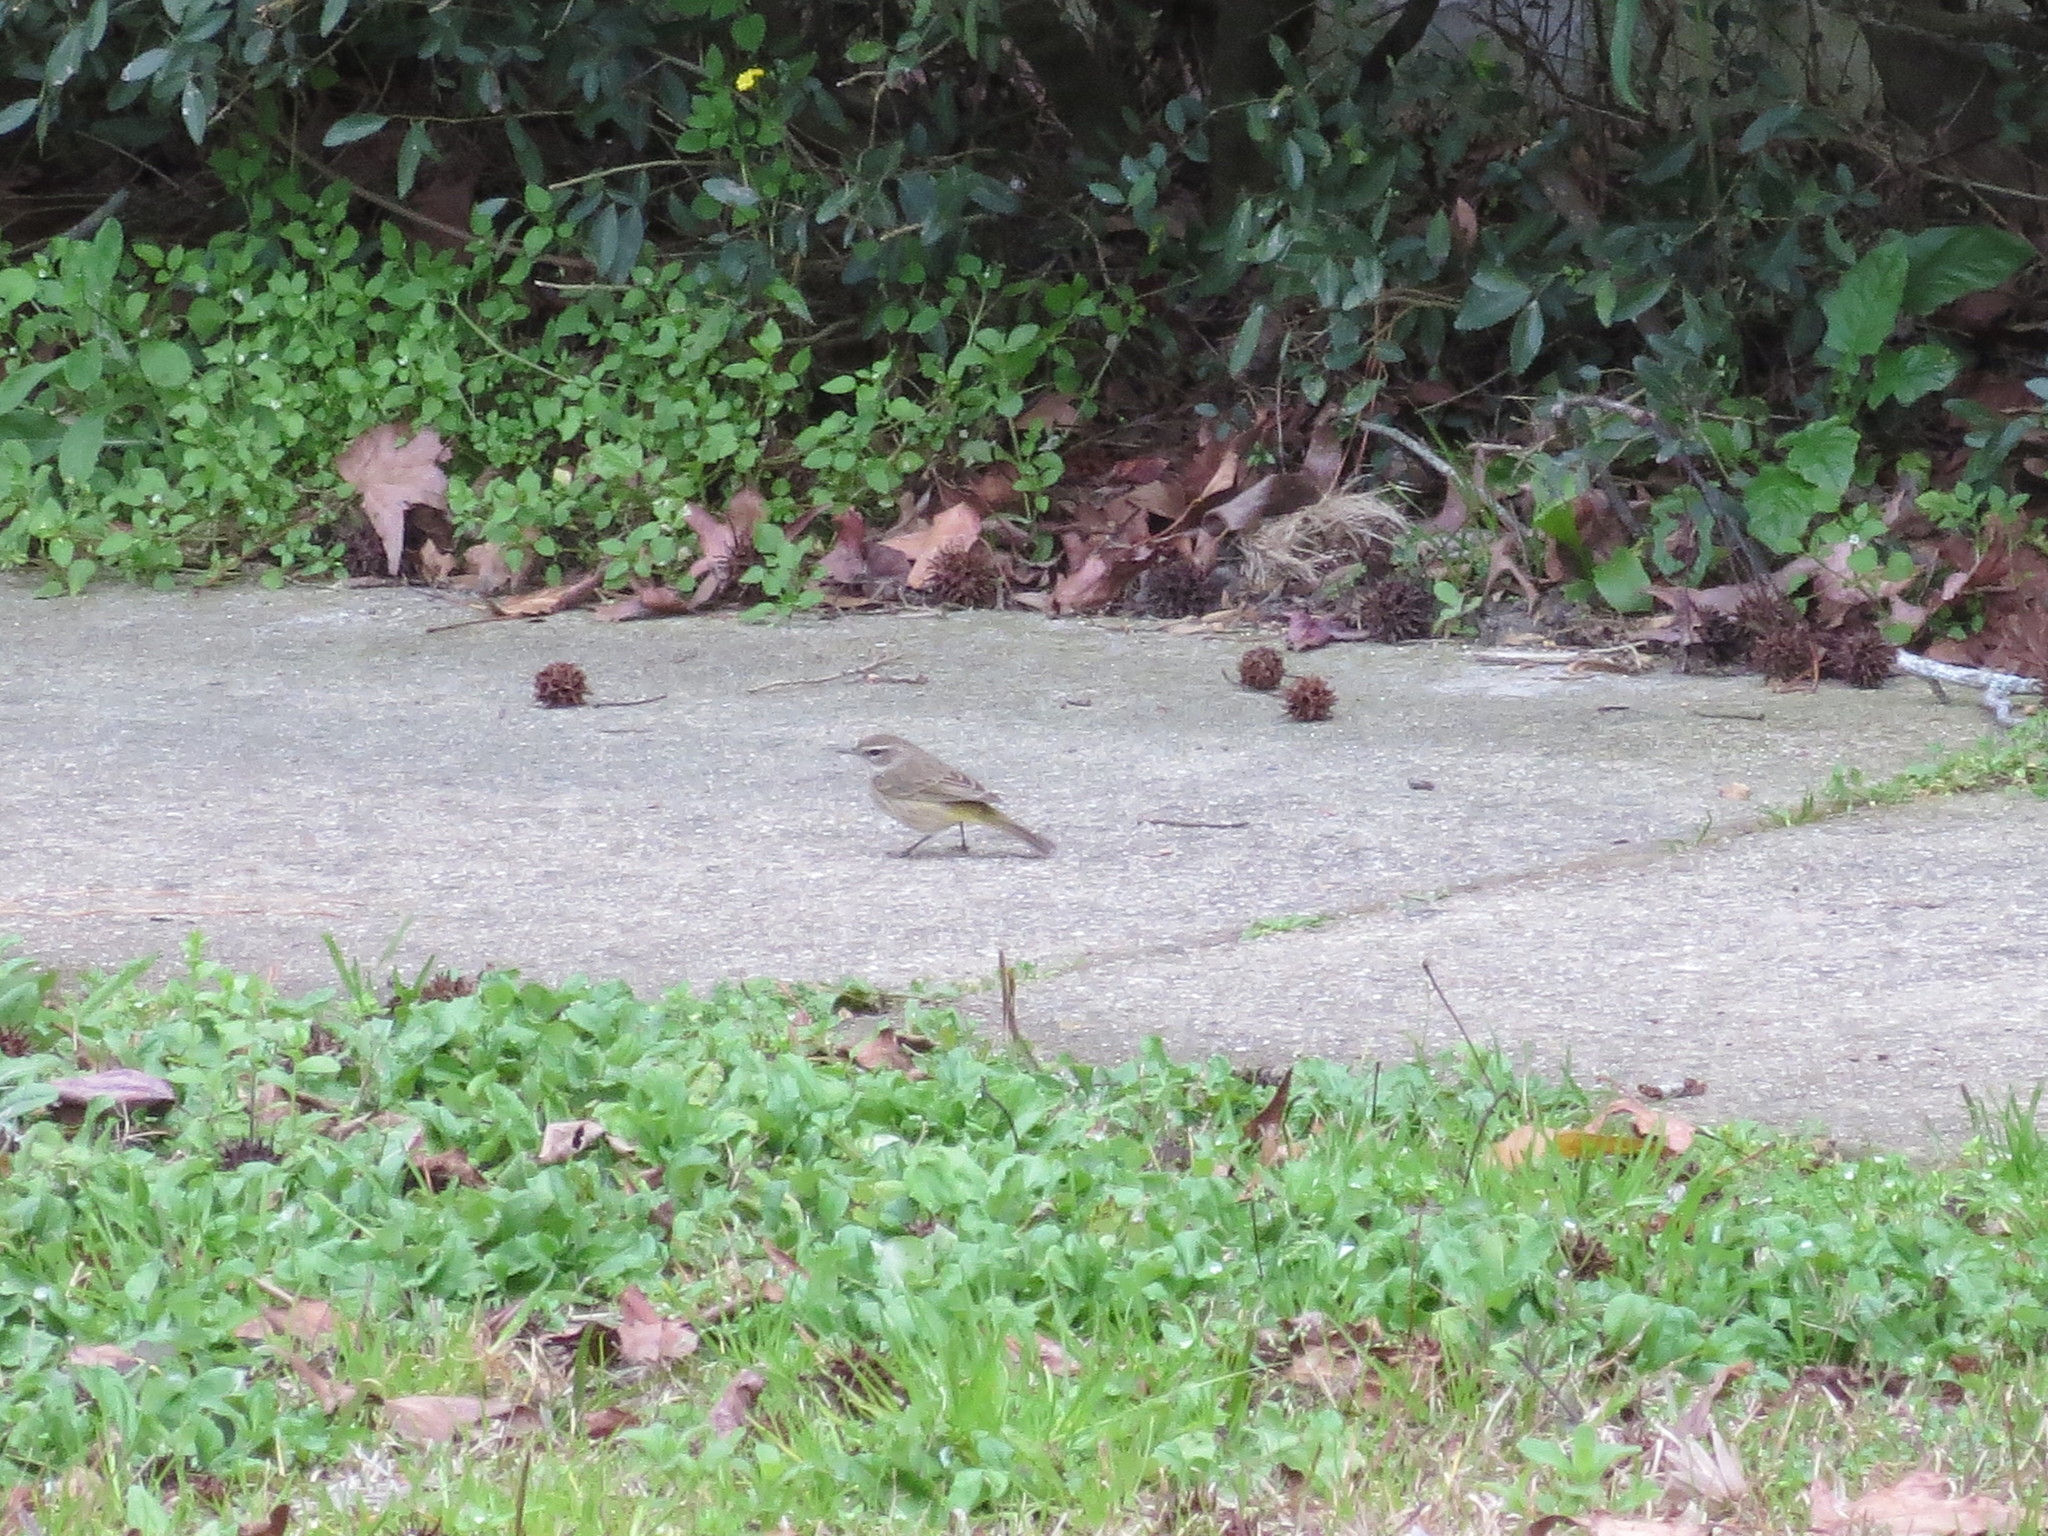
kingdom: Animalia
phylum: Chordata
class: Aves
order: Passeriformes
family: Parulidae
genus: Setophaga
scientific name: Setophaga palmarum
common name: Palm warbler
